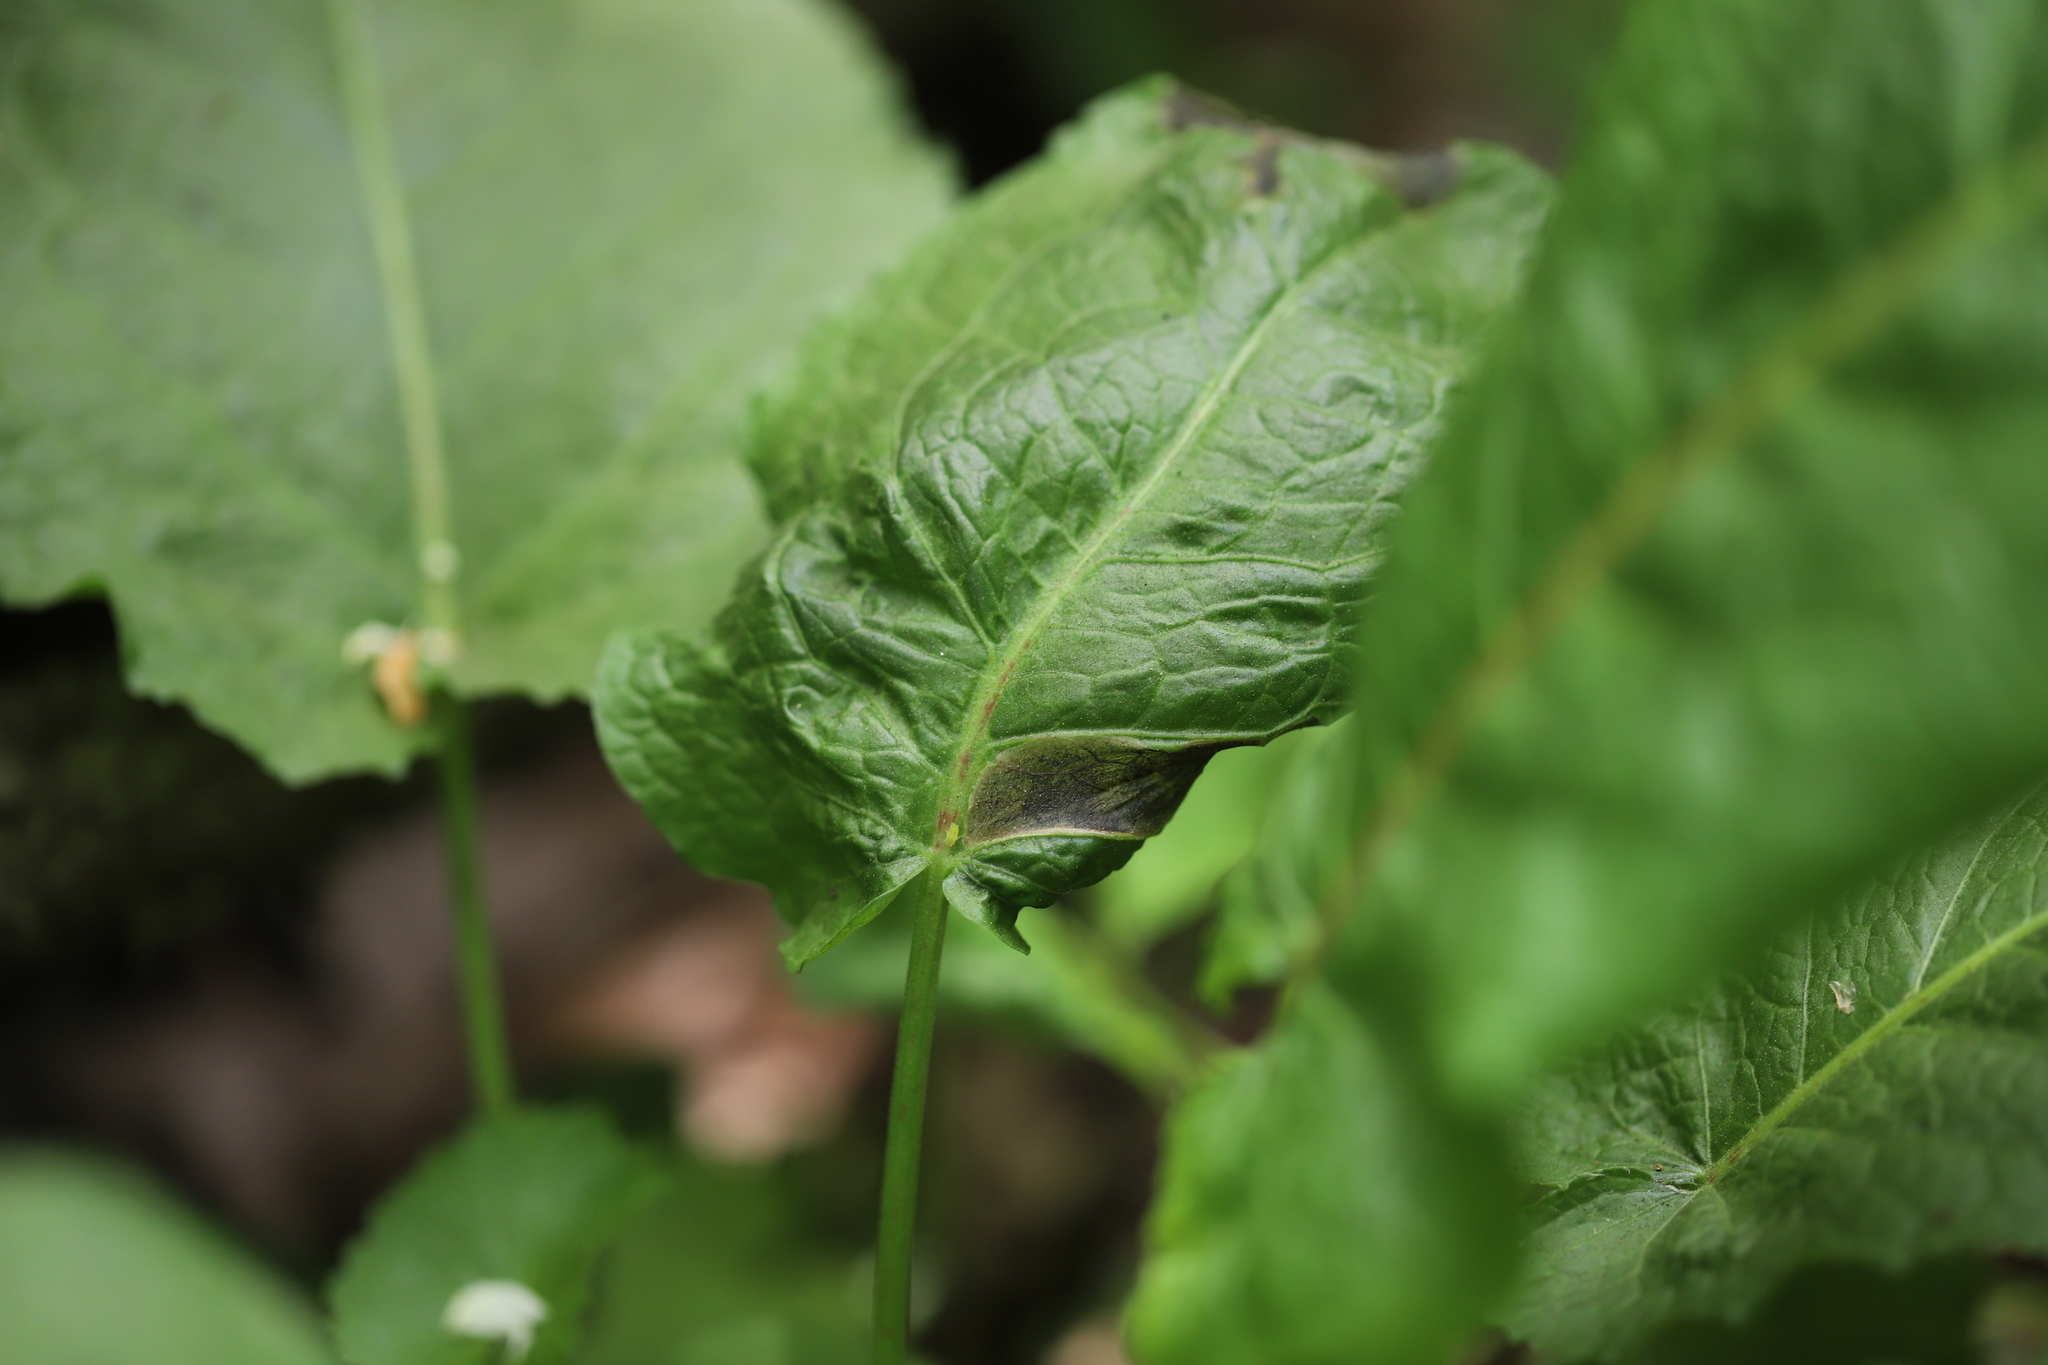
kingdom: Plantae
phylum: Tracheophyta
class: Magnoliopsida
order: Caryophyllales
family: Polygonaceae
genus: Rumex
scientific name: Rumex obtusifolius
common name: Bitter dock
